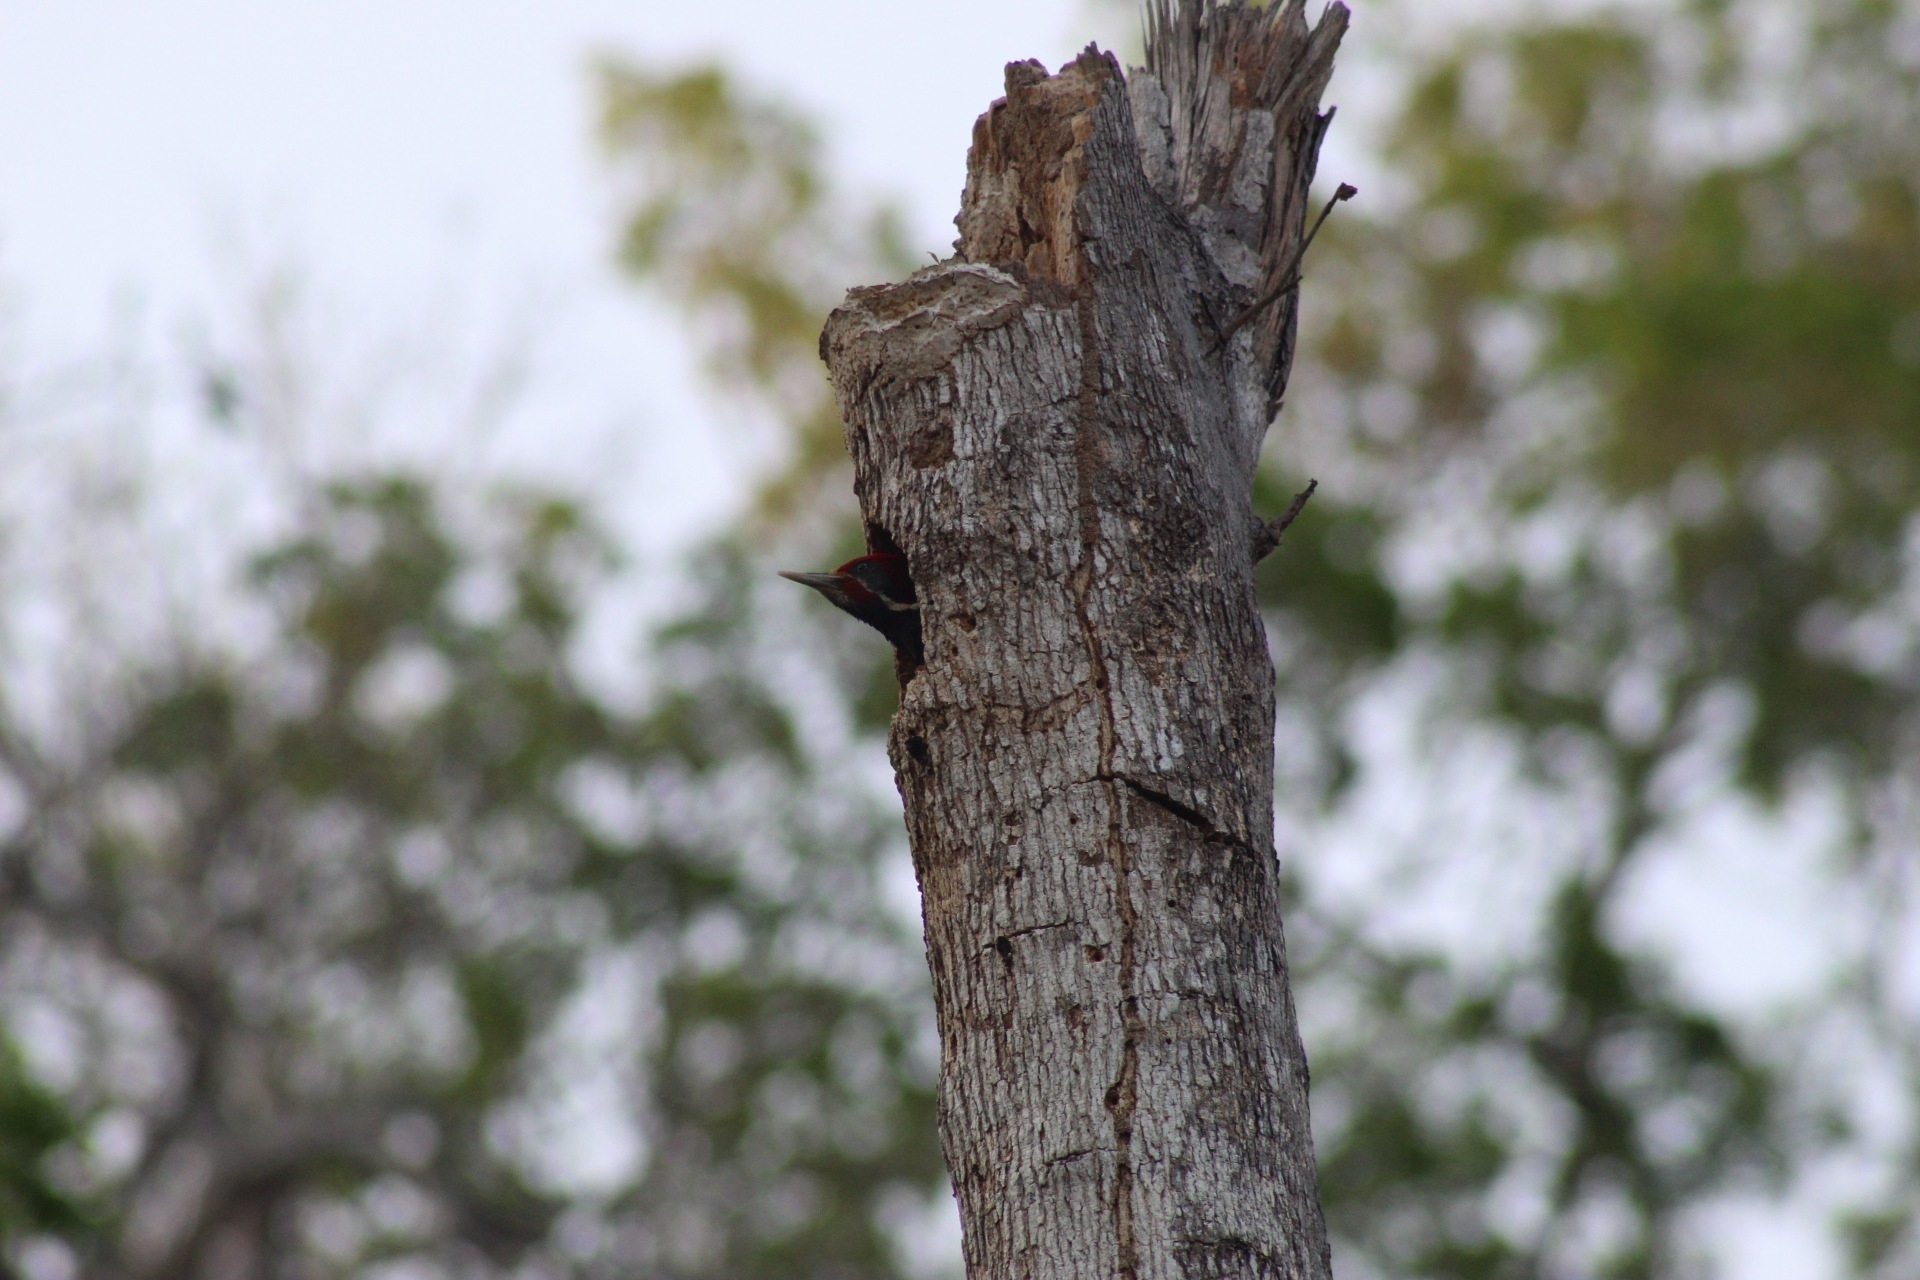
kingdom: Animalia
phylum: Chordata
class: Aves
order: Piciformes
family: Picidae
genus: Dryocopus
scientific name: Dryocopus lineatus
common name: Lineated woodpecker
